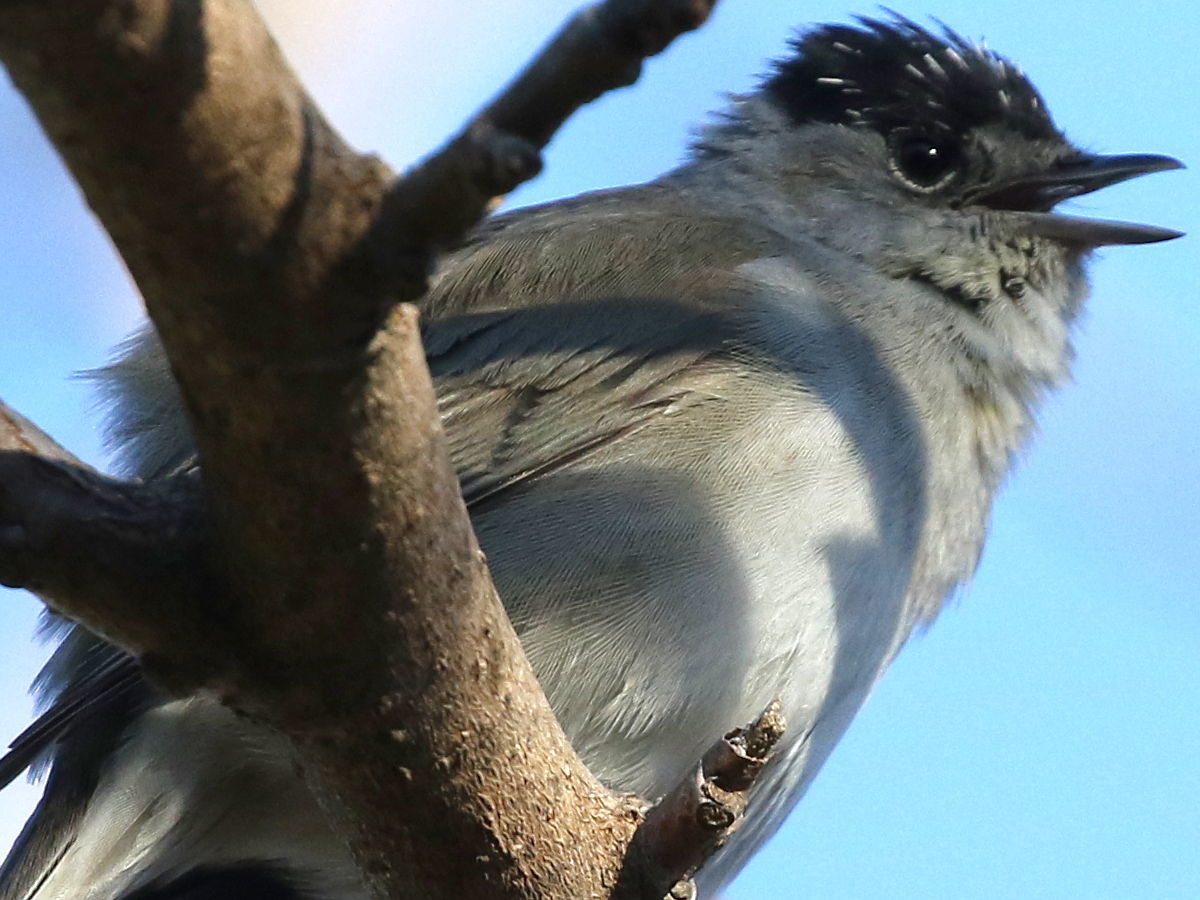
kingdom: Animalia
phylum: Chordata
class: Aves
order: Passeriformes
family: Sylviidae
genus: Sylvia
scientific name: Sylvia atricapilla
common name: Eurasian blackcap
